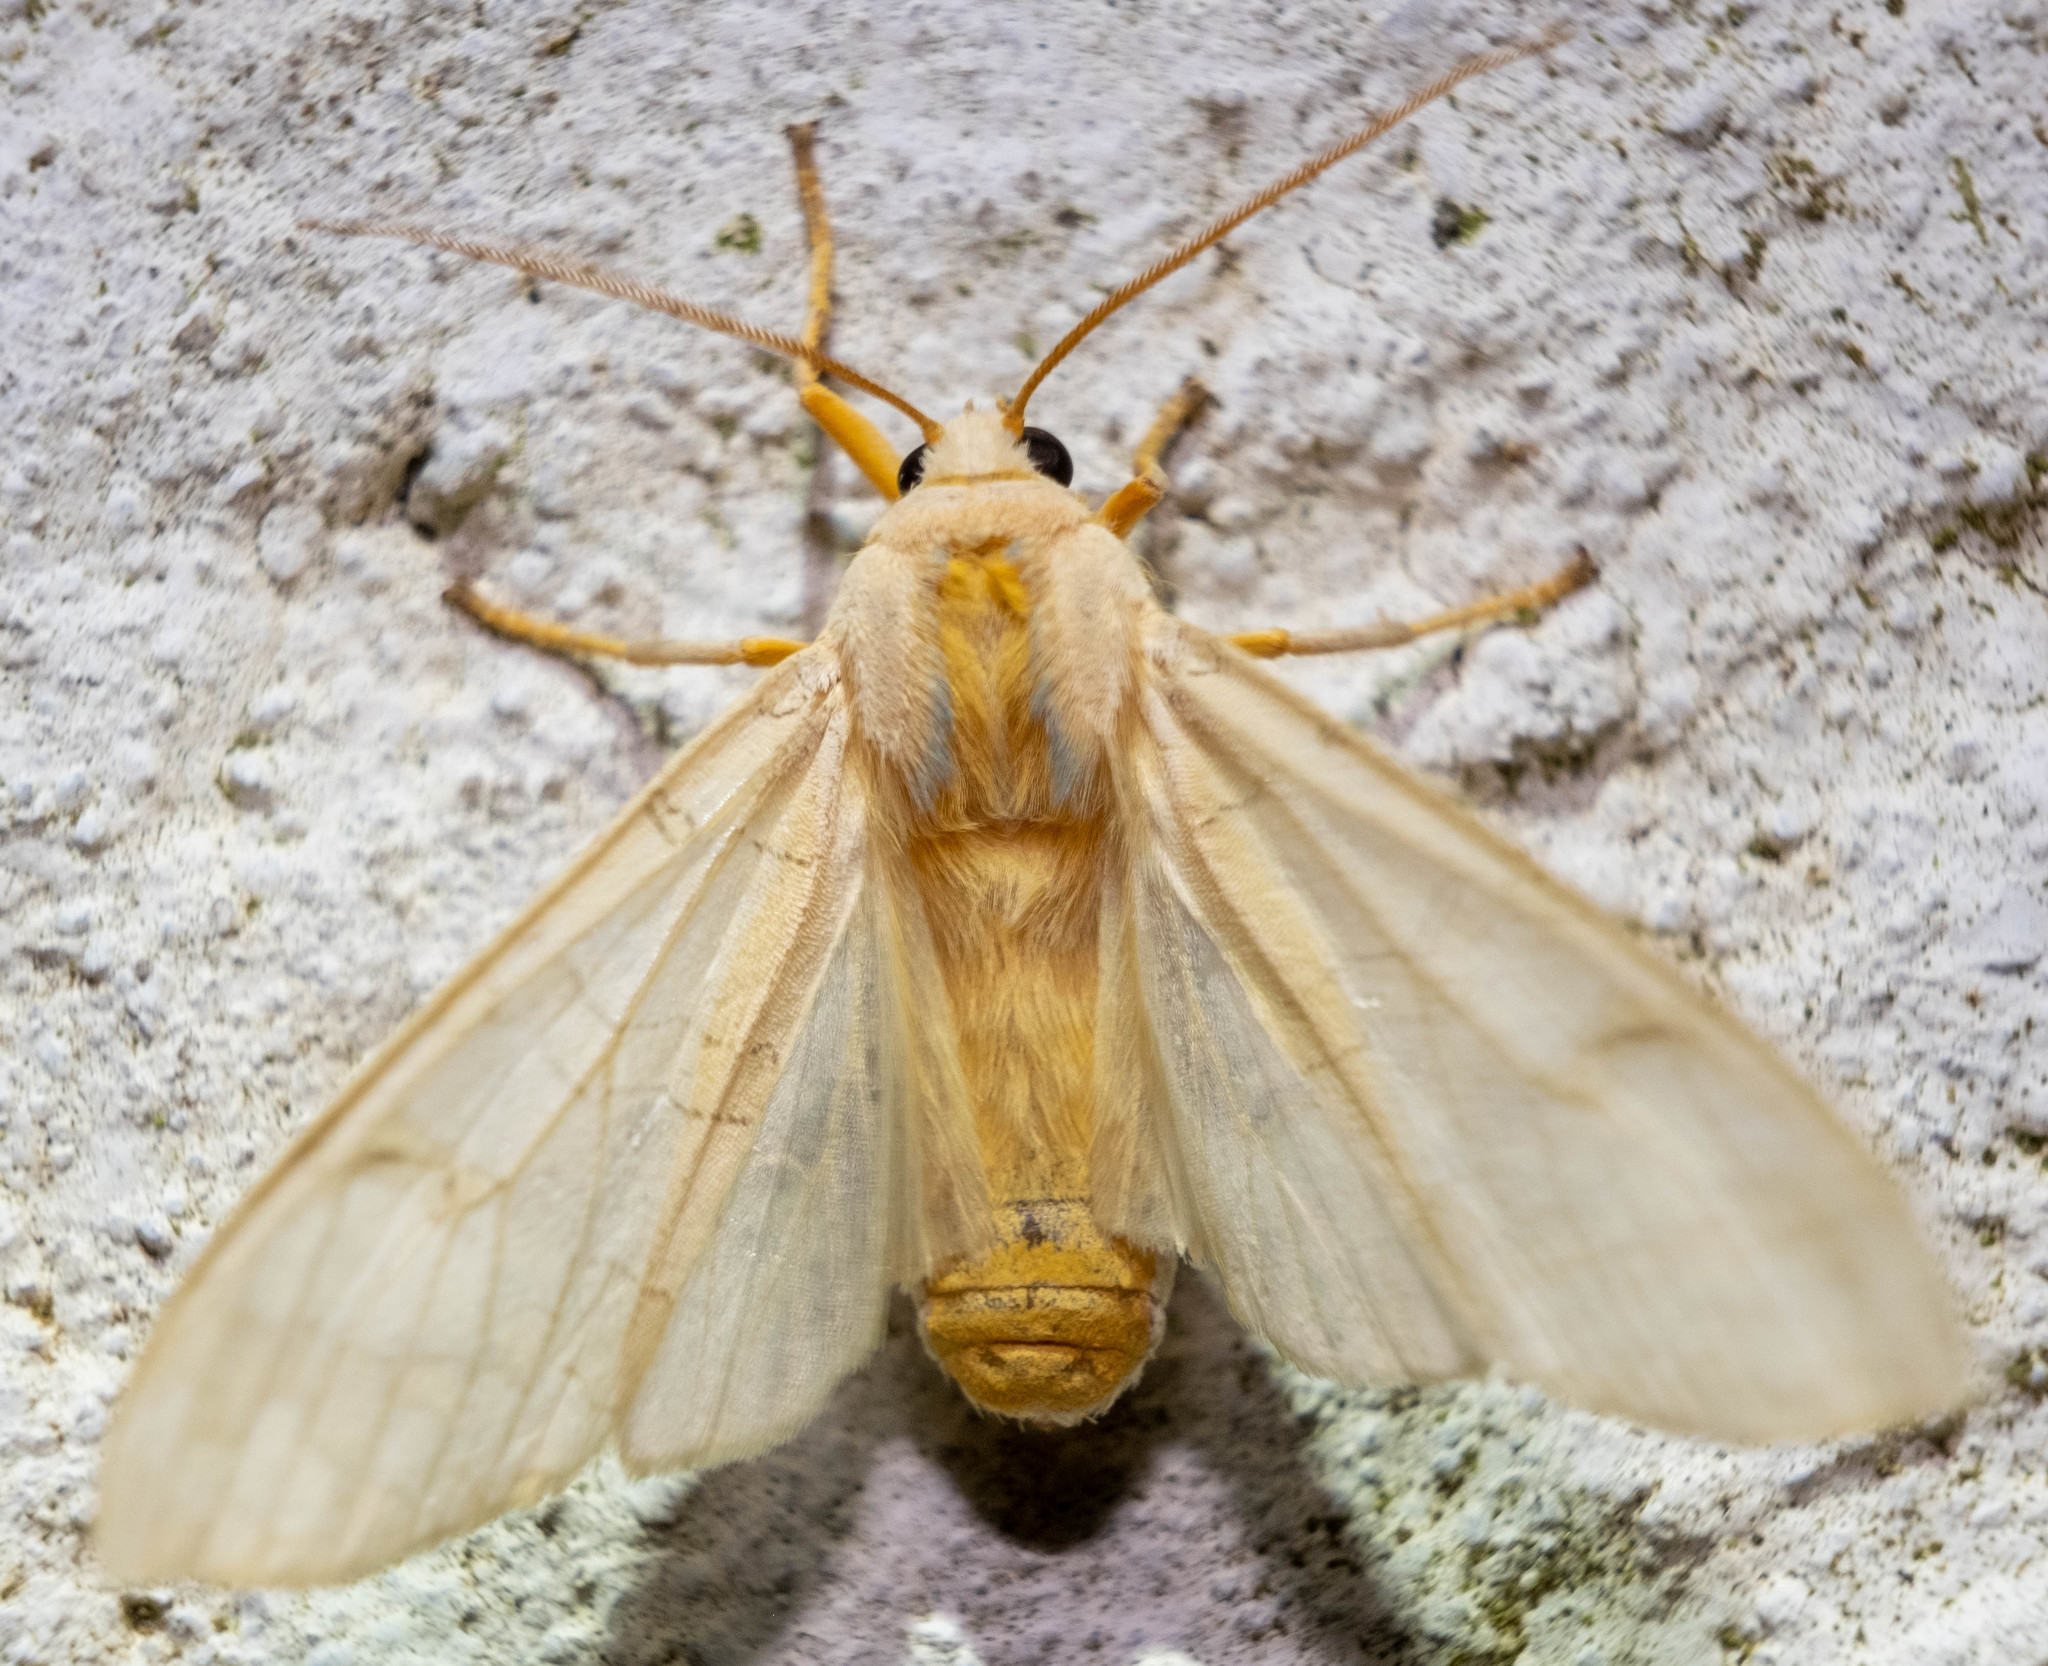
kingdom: Animalia
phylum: Arthropoda
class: Insecta
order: Lepidoptera
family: Erebidae
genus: Halysidota
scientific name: Halysidota
